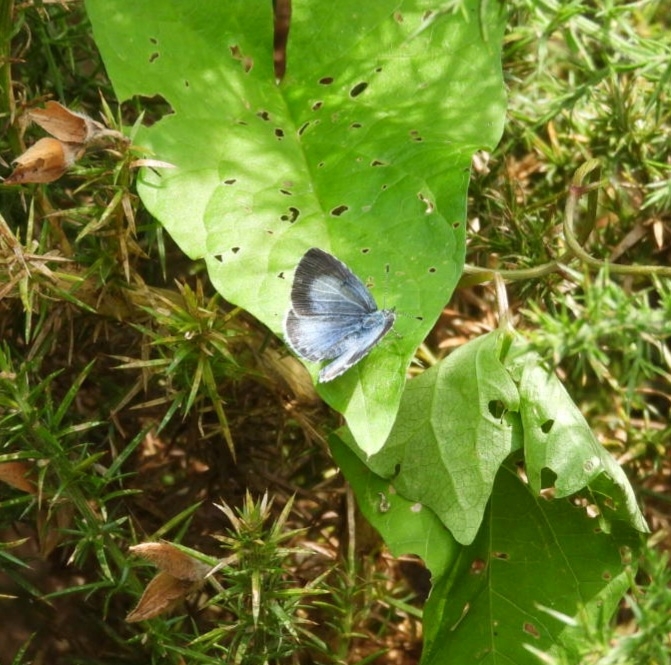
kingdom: Animalia
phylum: Arthropoda
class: Insecta
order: Lepidoptera
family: Lycaenidae
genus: Celastrina
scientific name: Celastrina argiolus
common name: Holly blue
